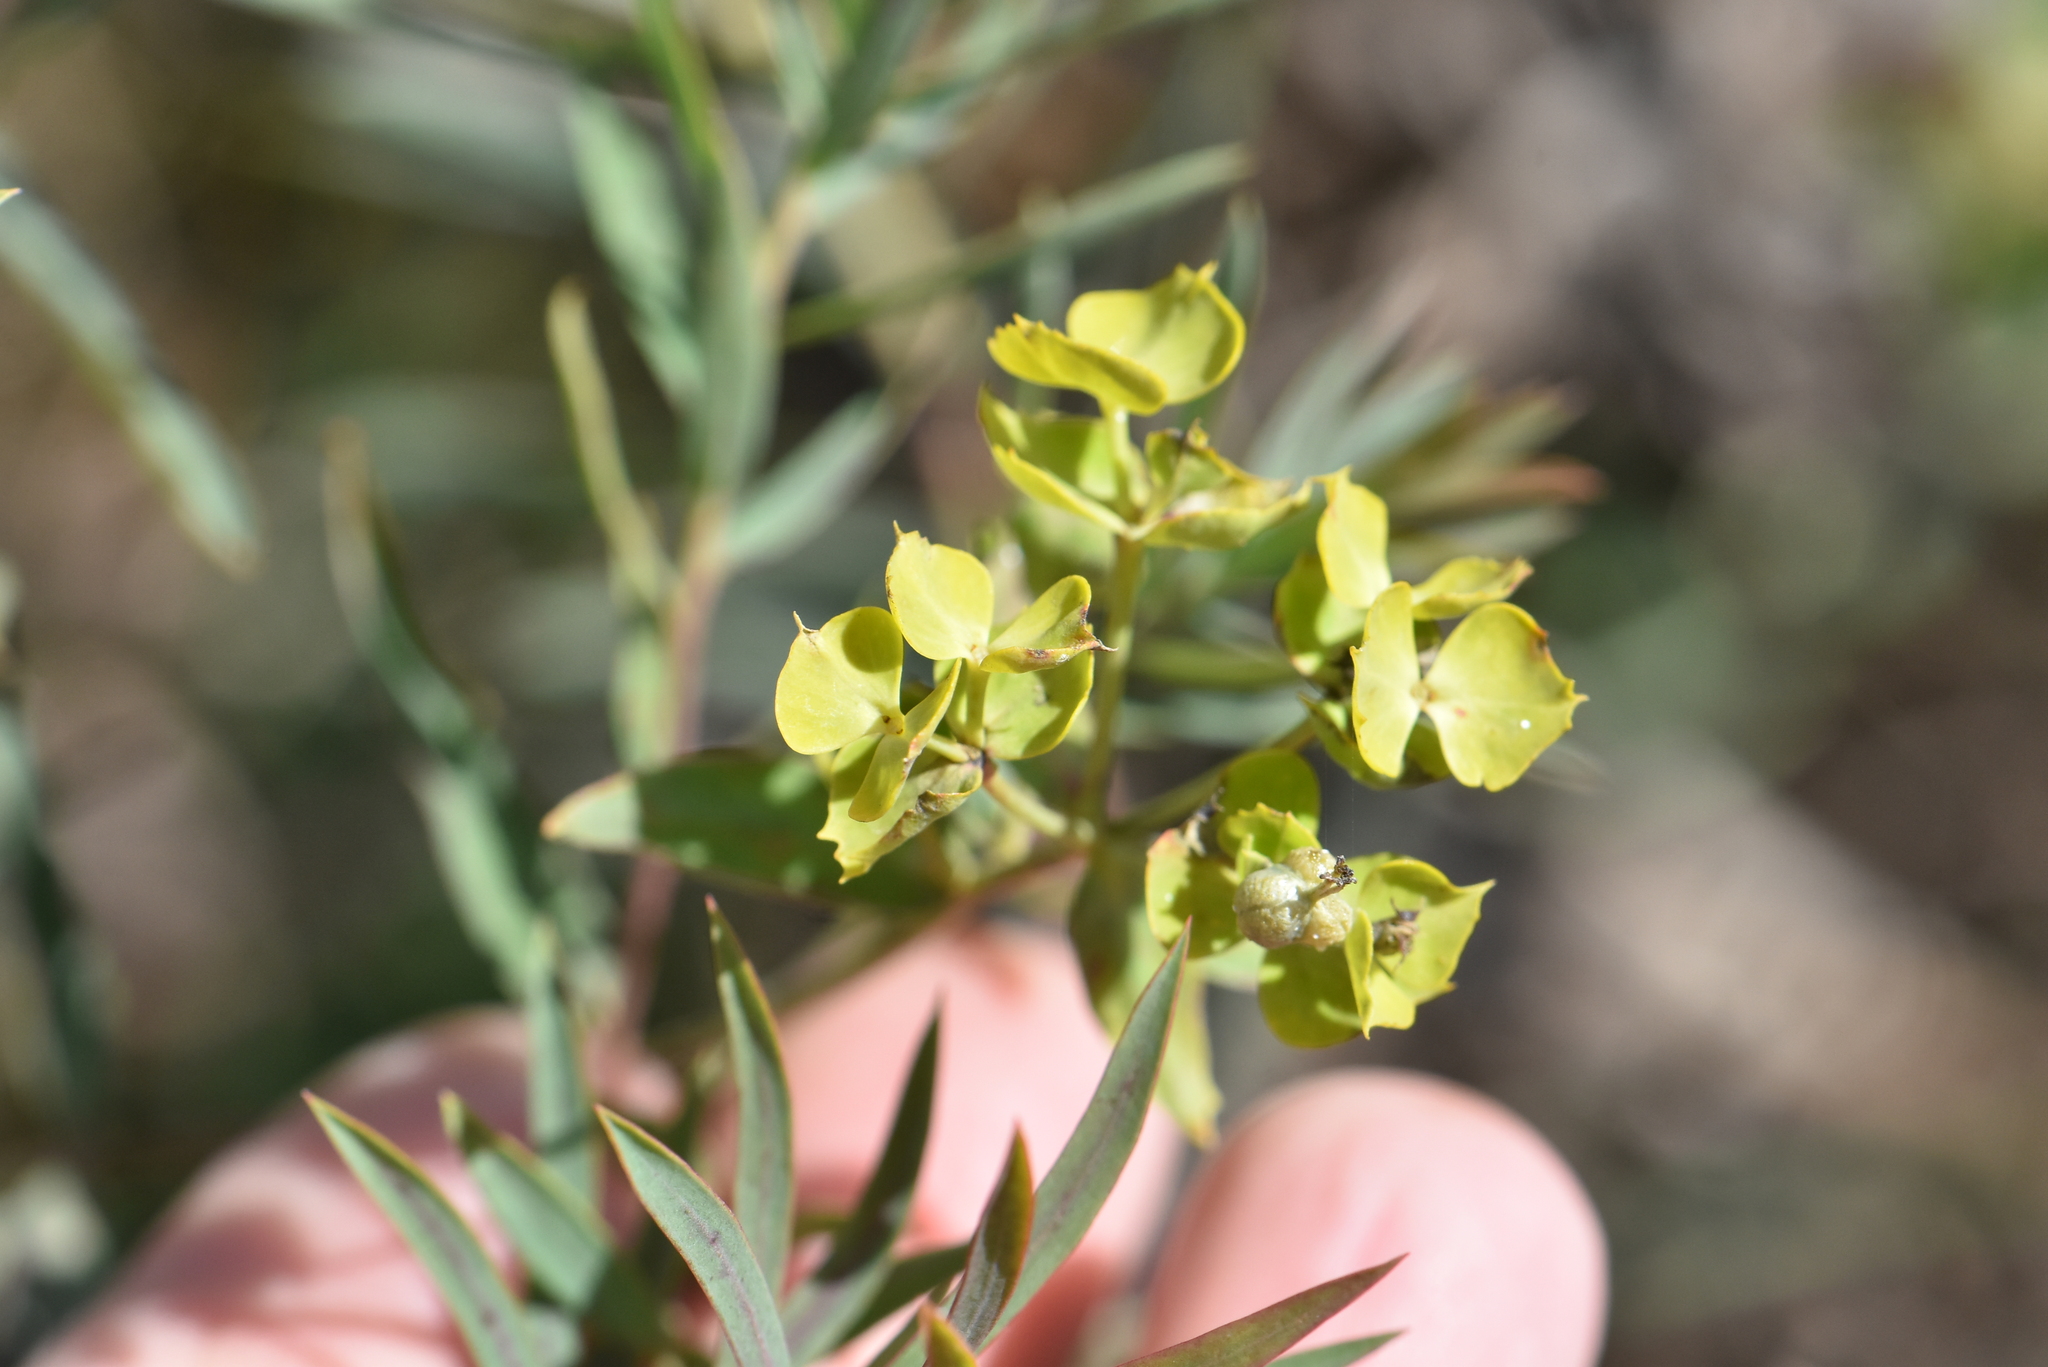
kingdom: Plantae
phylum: Tracheophyta
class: Magnoliopsida
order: Malpighiales
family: Euphorbiaceae
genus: Euphorbia
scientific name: Euphorbia virgata
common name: Leafy spurge
